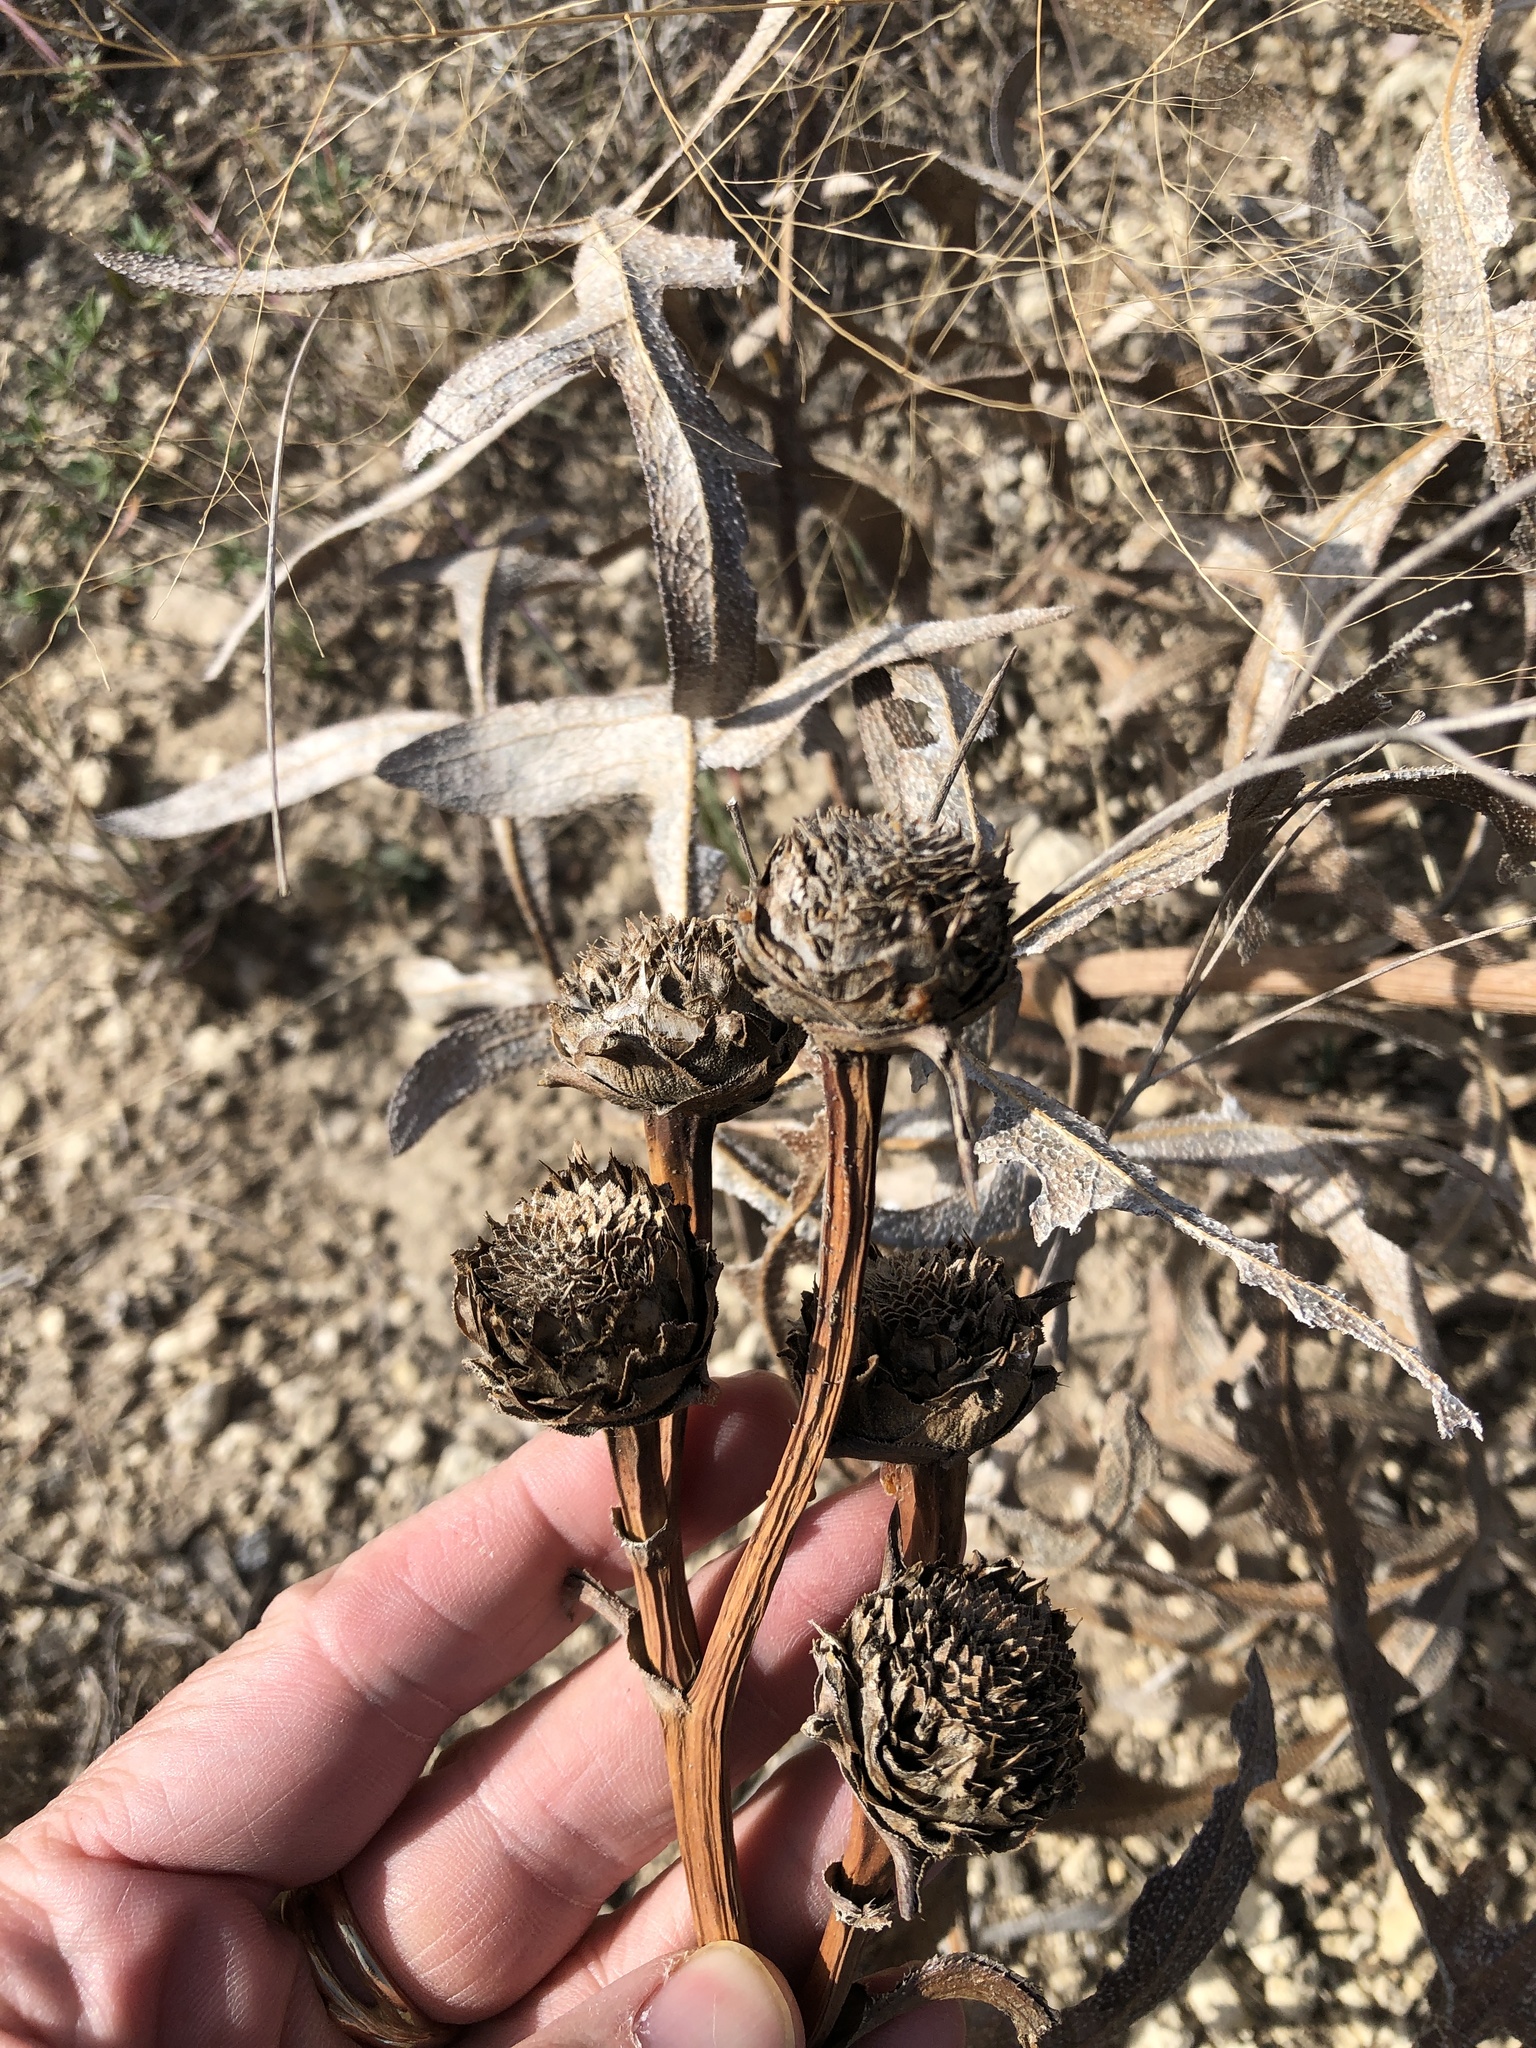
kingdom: Plantae
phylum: Tracheophyta
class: Magnoliopsida
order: Asterales
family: Asteraceae
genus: Silphium
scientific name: Silphium albiflorum
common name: White rosinweed
